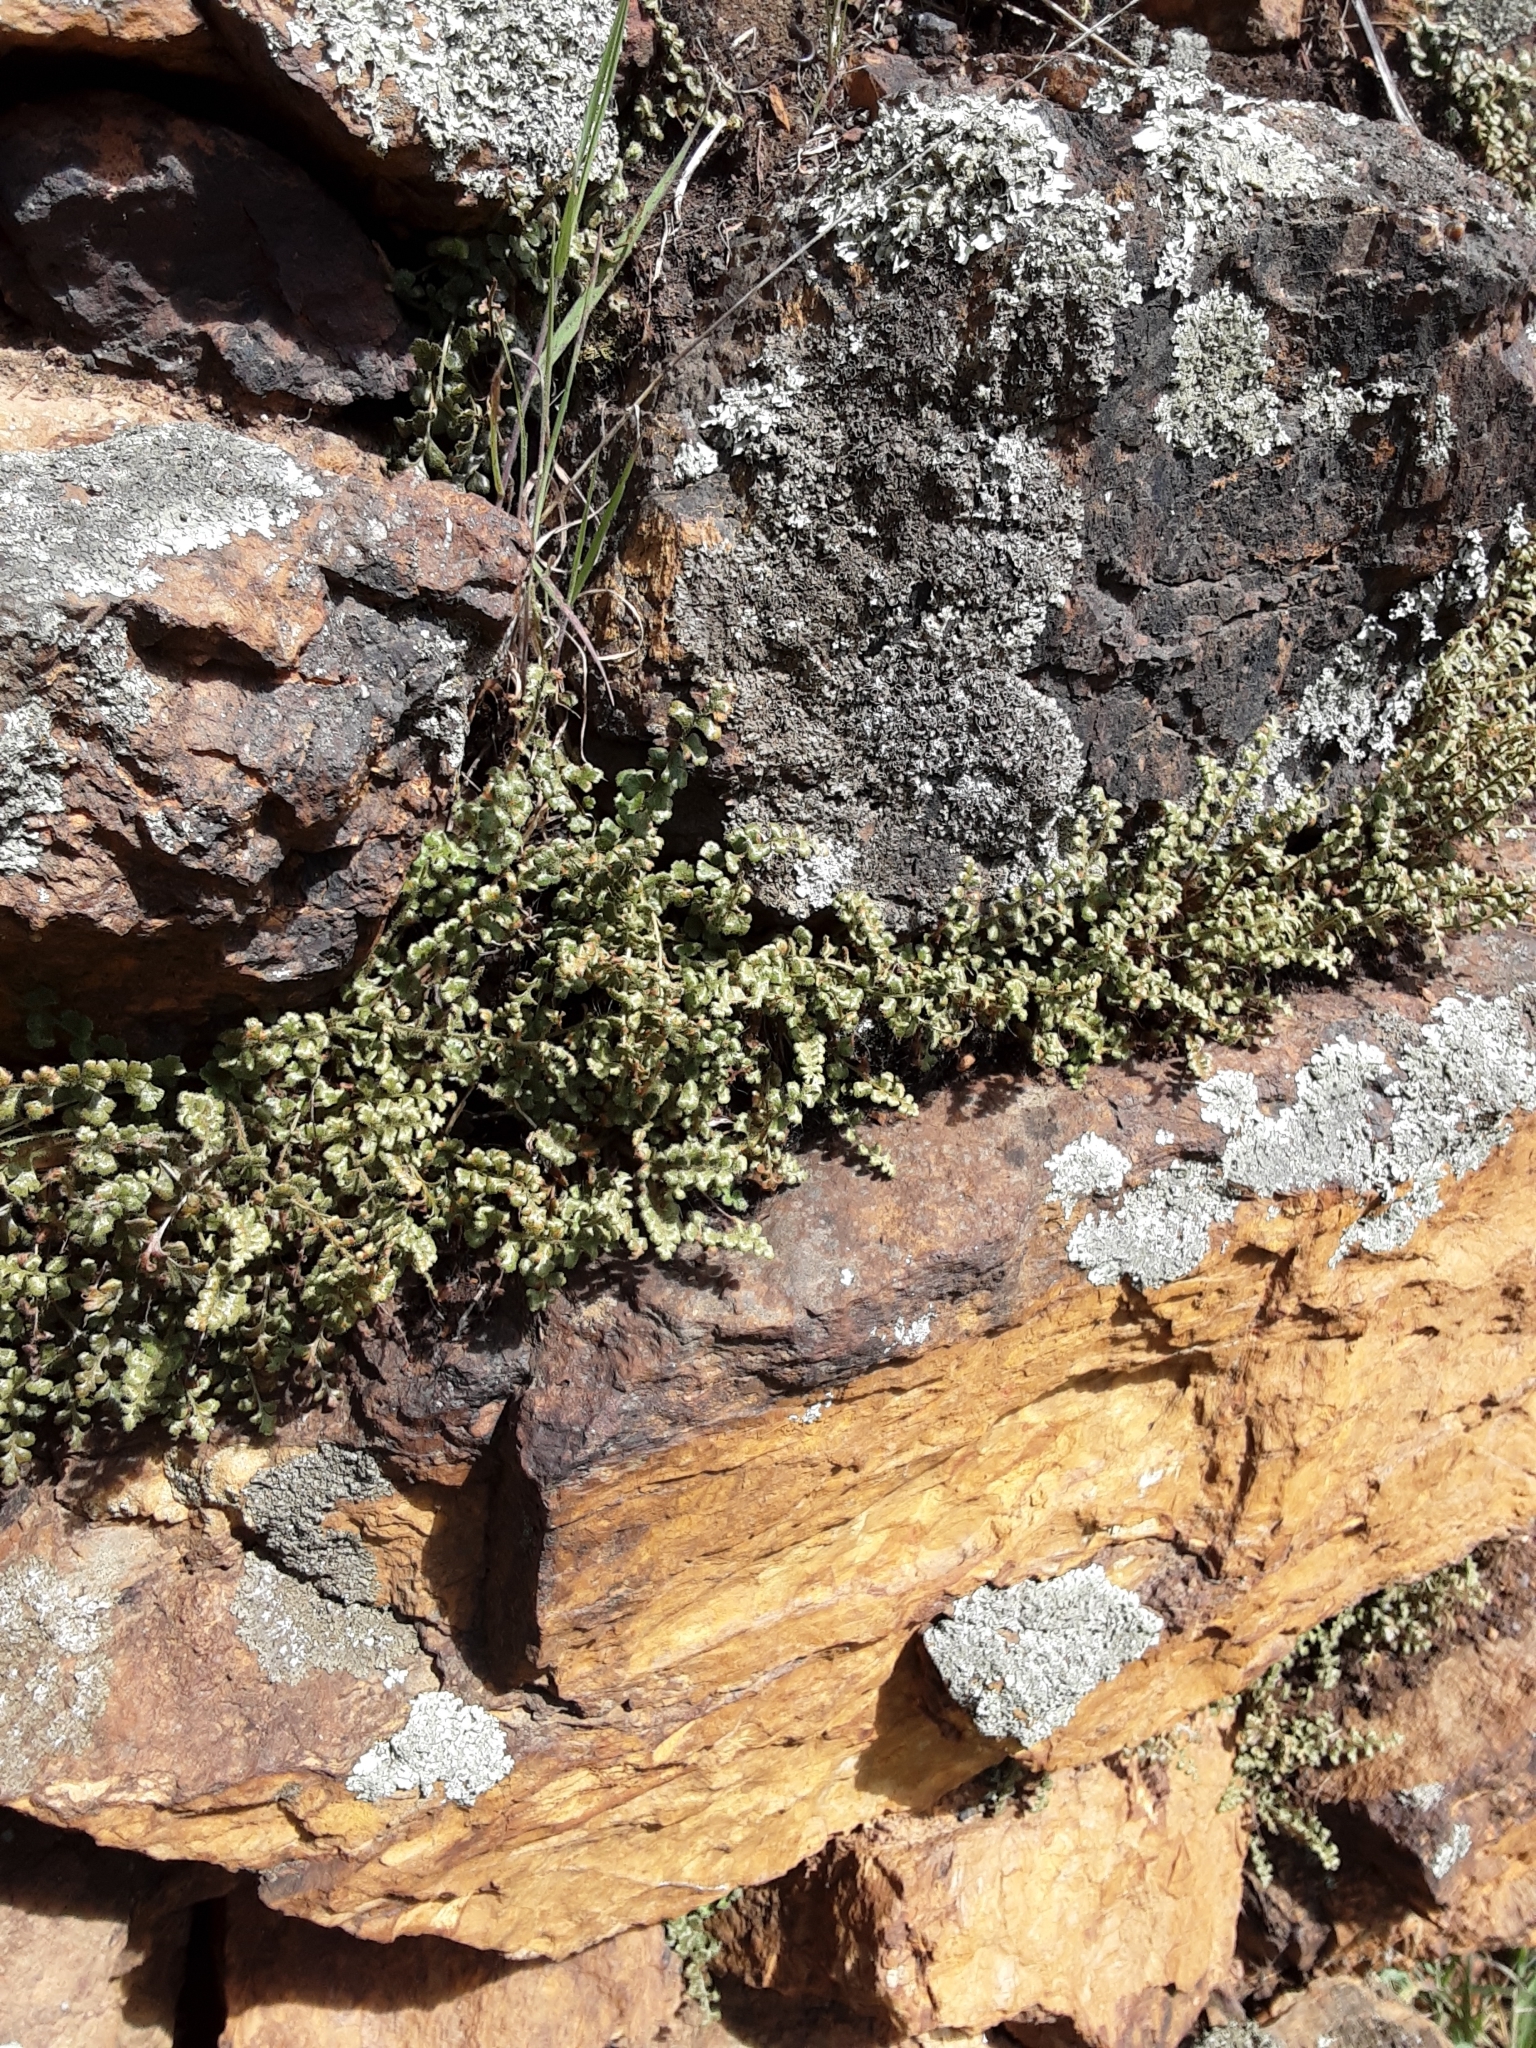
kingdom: Plantae
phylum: Tracheophyta
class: Polypodiopsida
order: Polypodiales
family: Aspleniaceae
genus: Asplenium
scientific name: Asplenium subglandulosum
